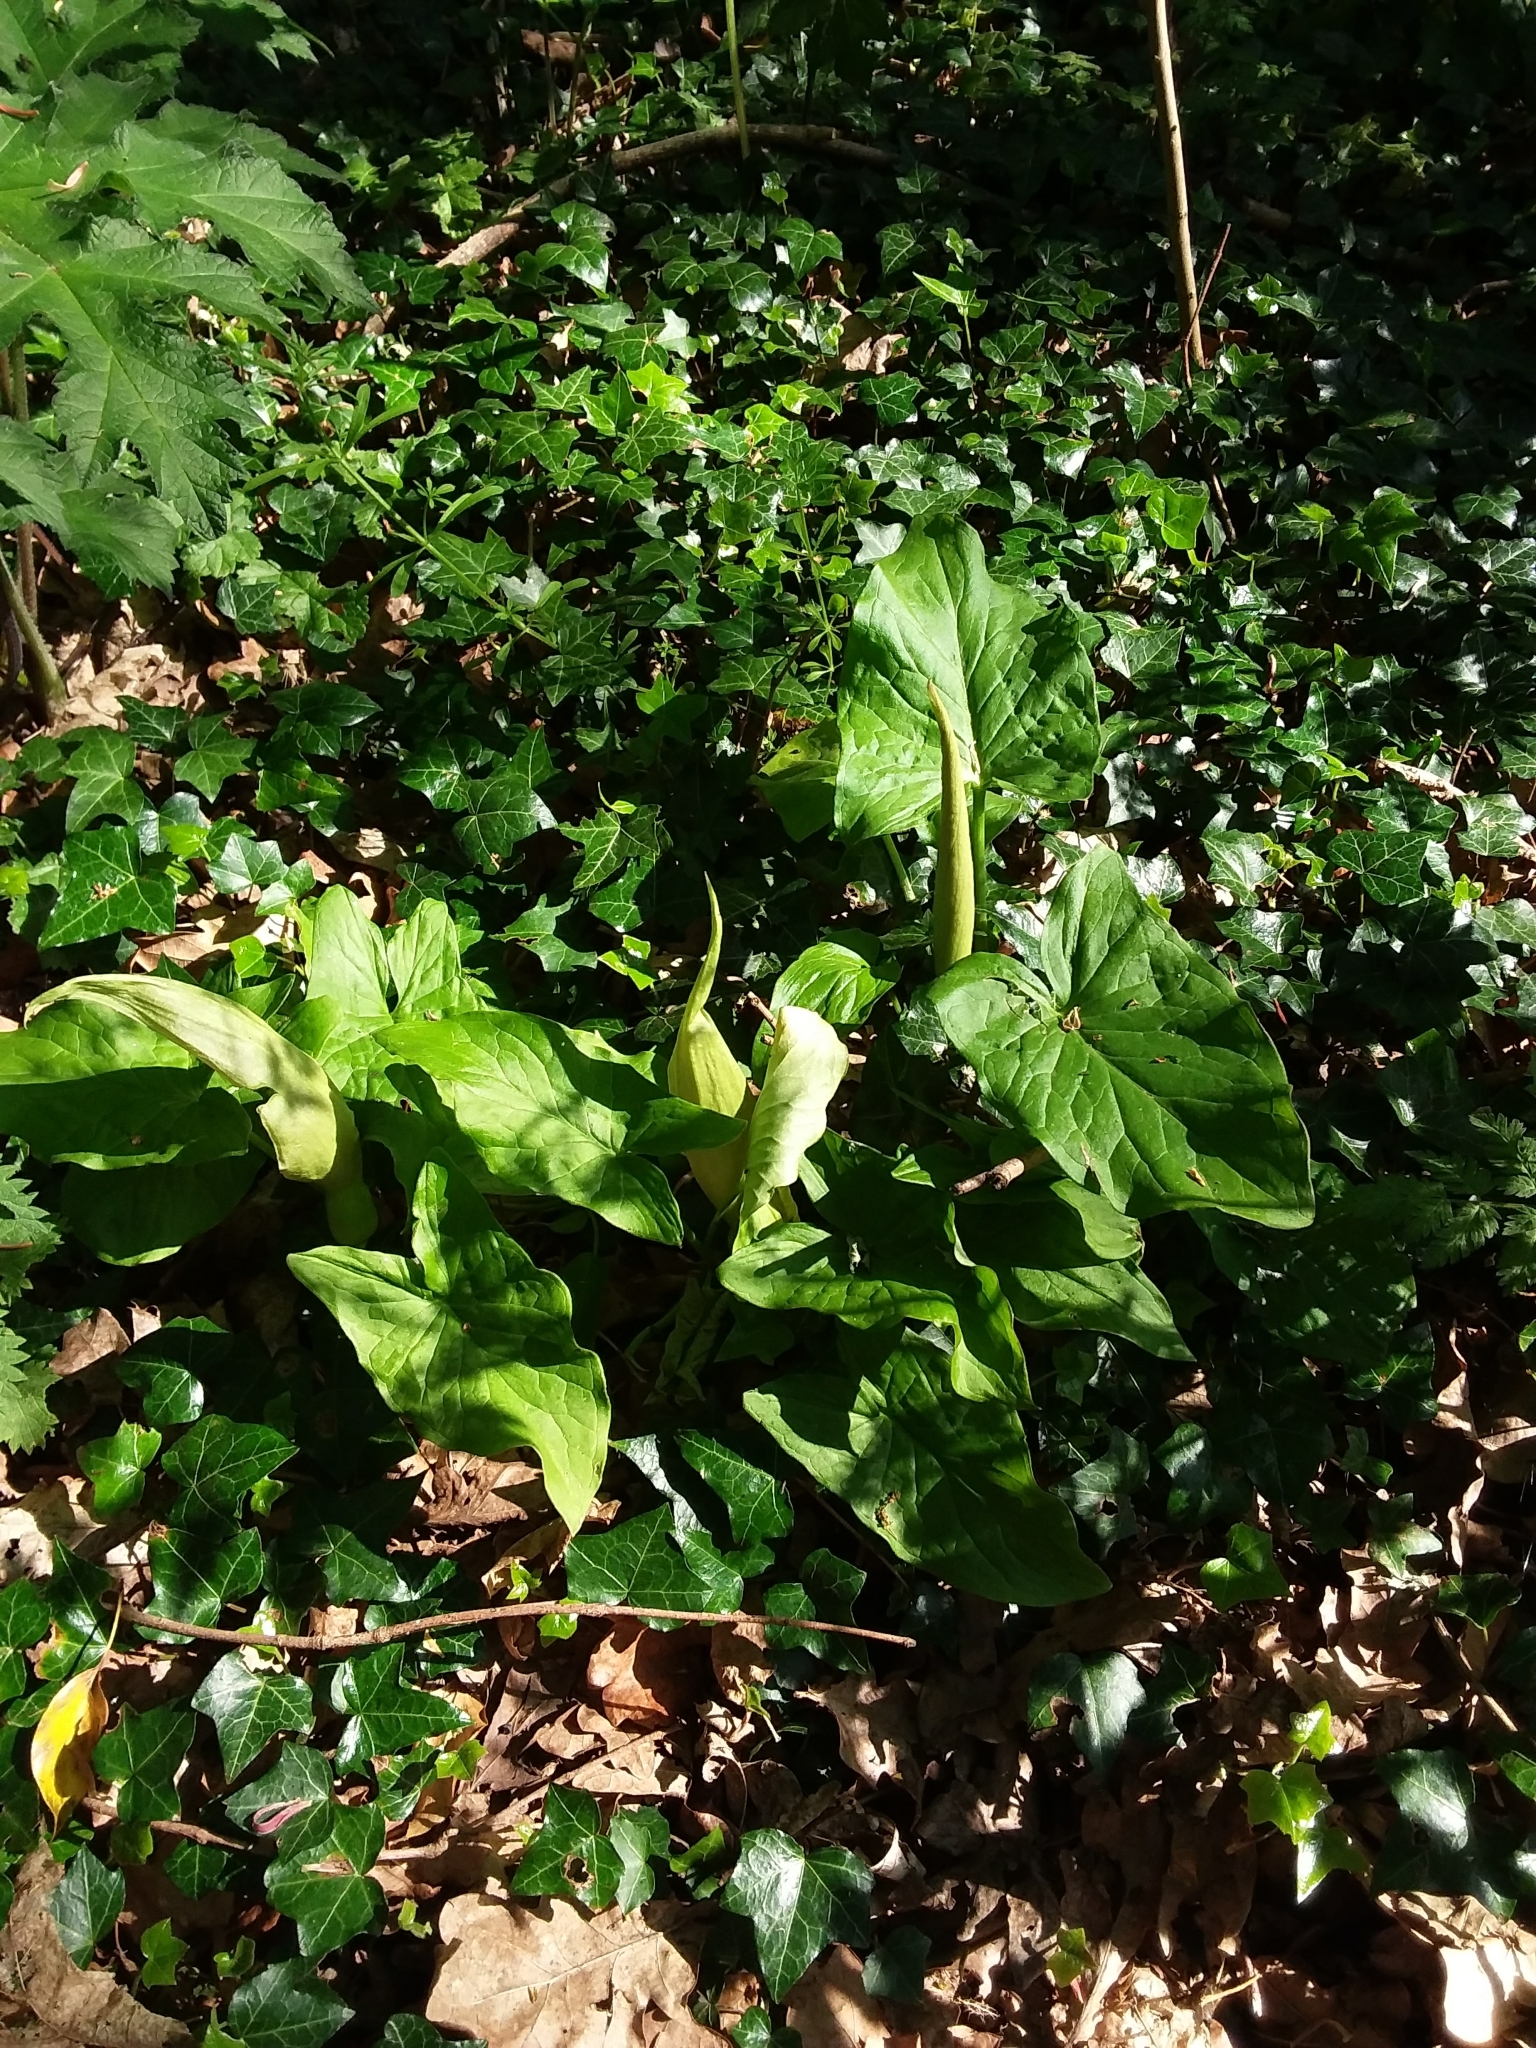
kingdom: Plantae
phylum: Tracheophyta
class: Liliopsida
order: Alismatales
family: Araceae
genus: Arum
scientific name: Arum maculatum
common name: Lords-and-ladies
